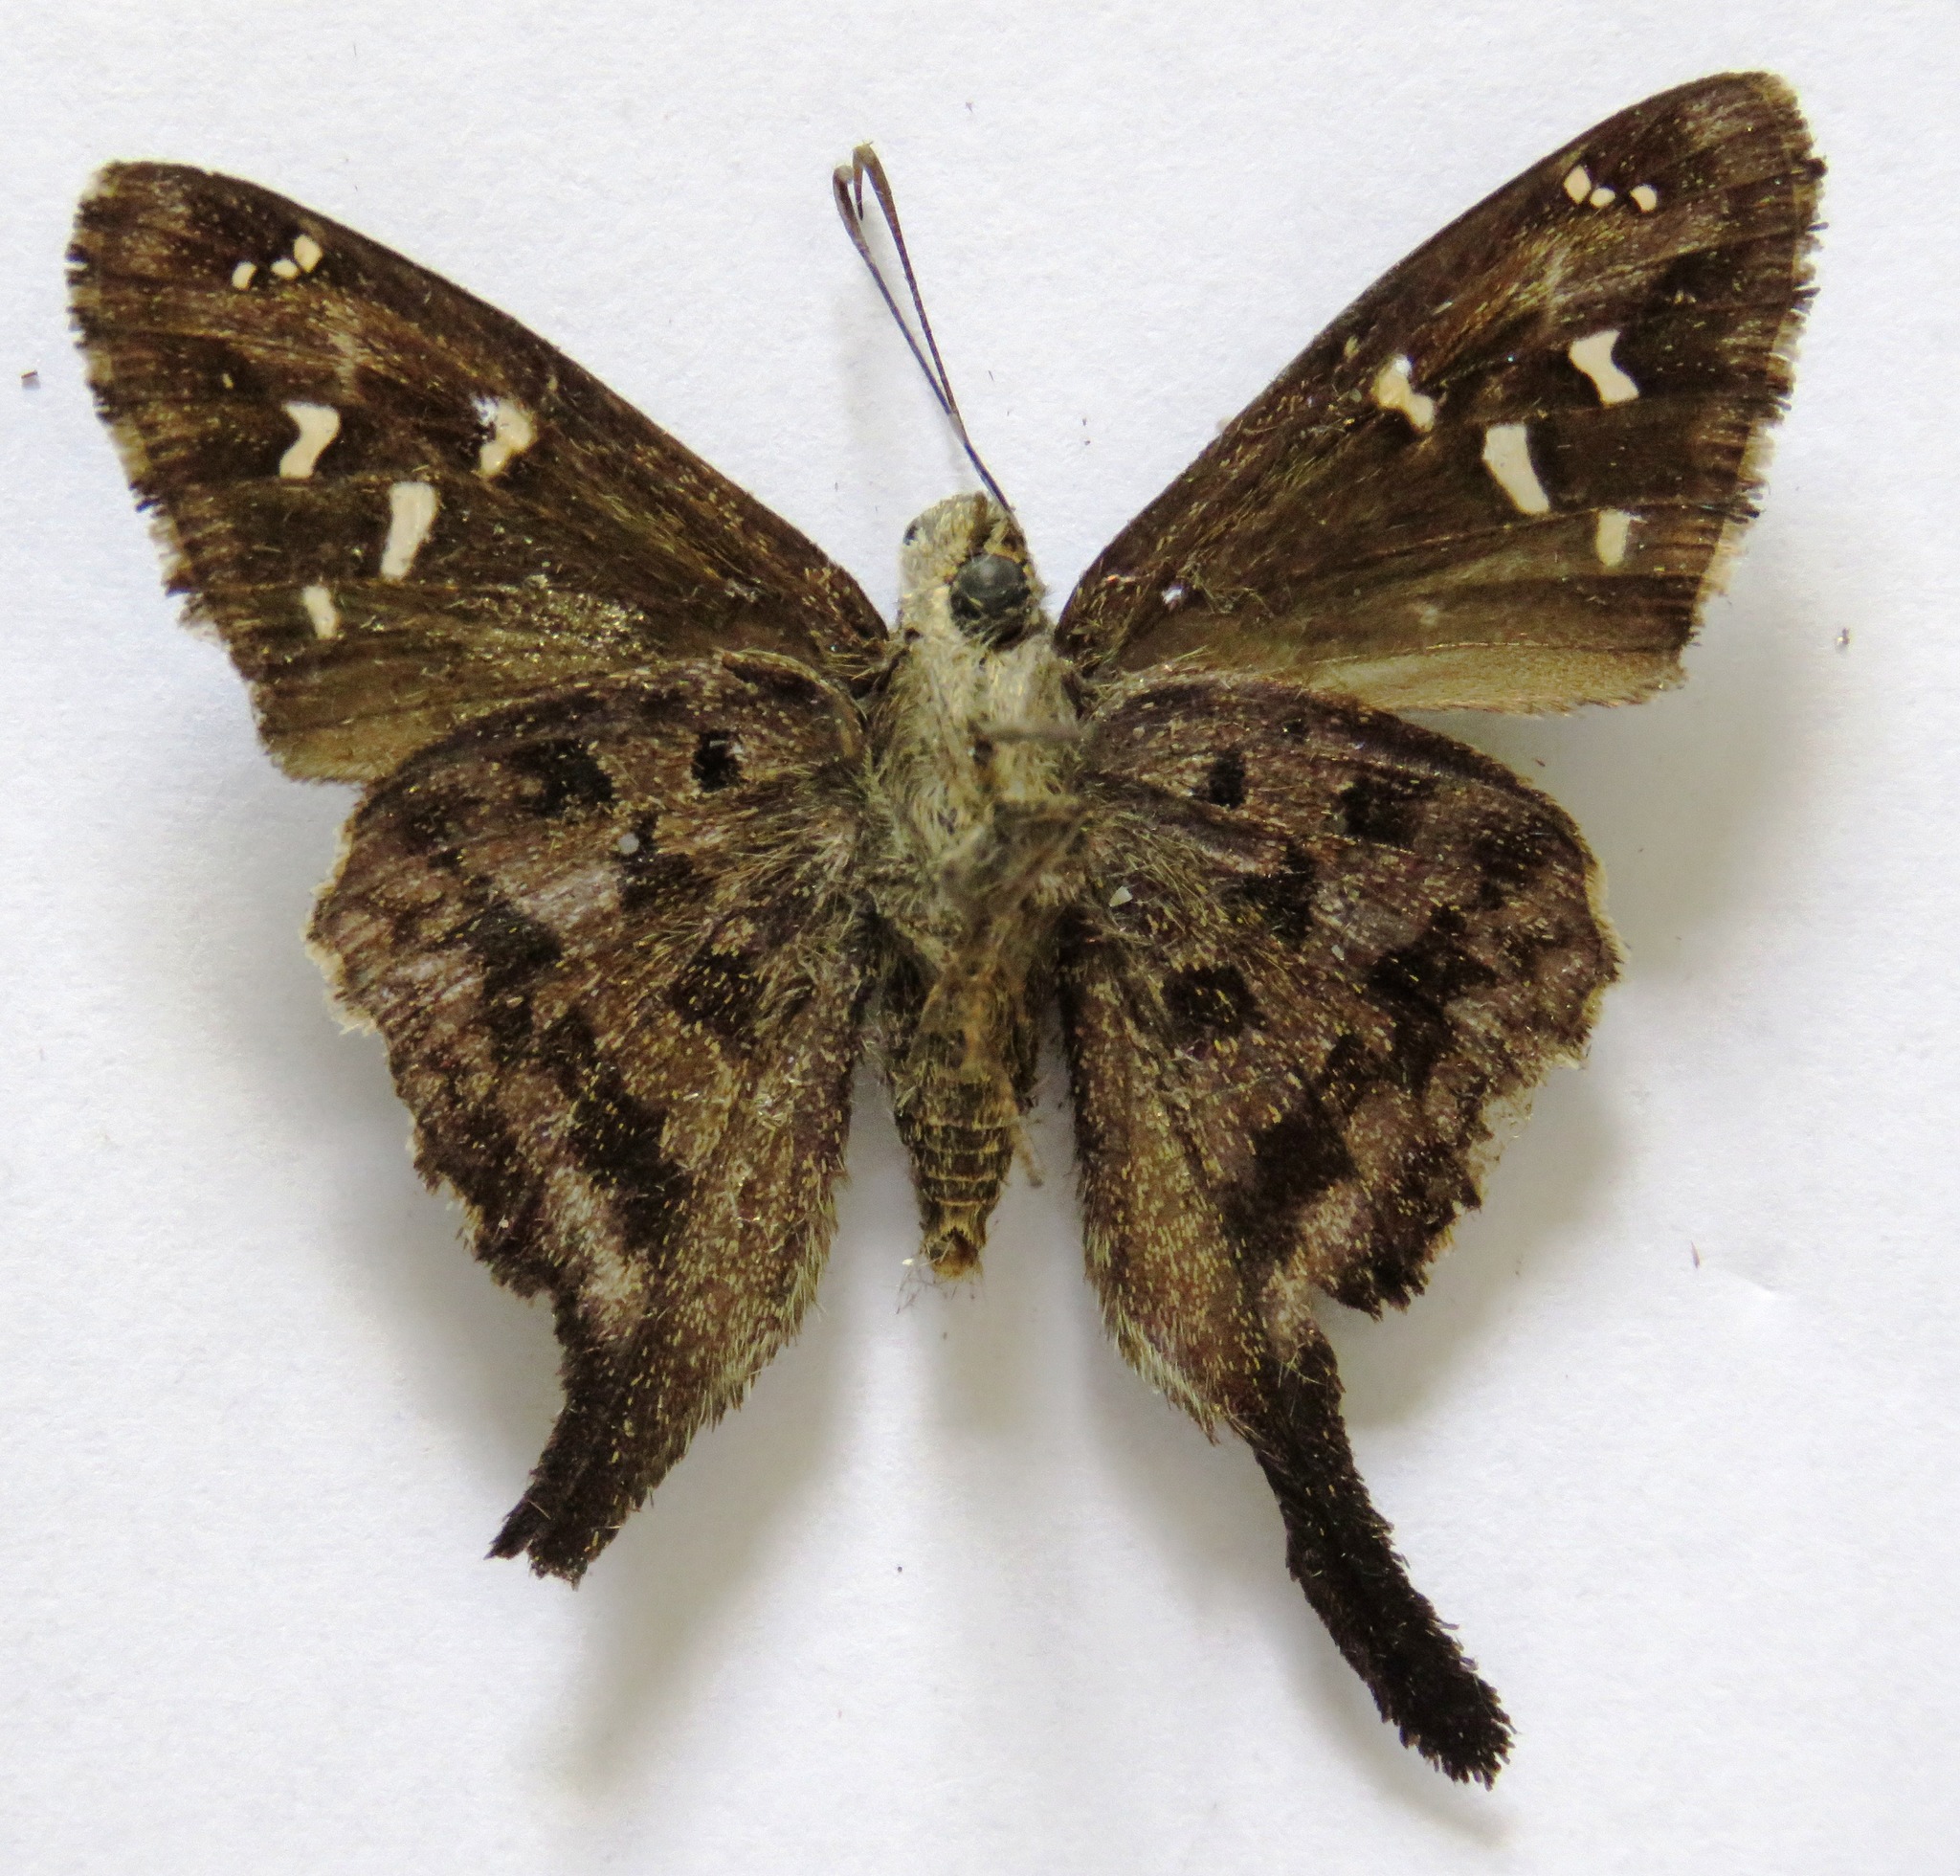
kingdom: Animalia
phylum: Arthropoda
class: Insecta
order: Lepidoptera
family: Hesperiidae
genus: Thorybes
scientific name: Thorybes
